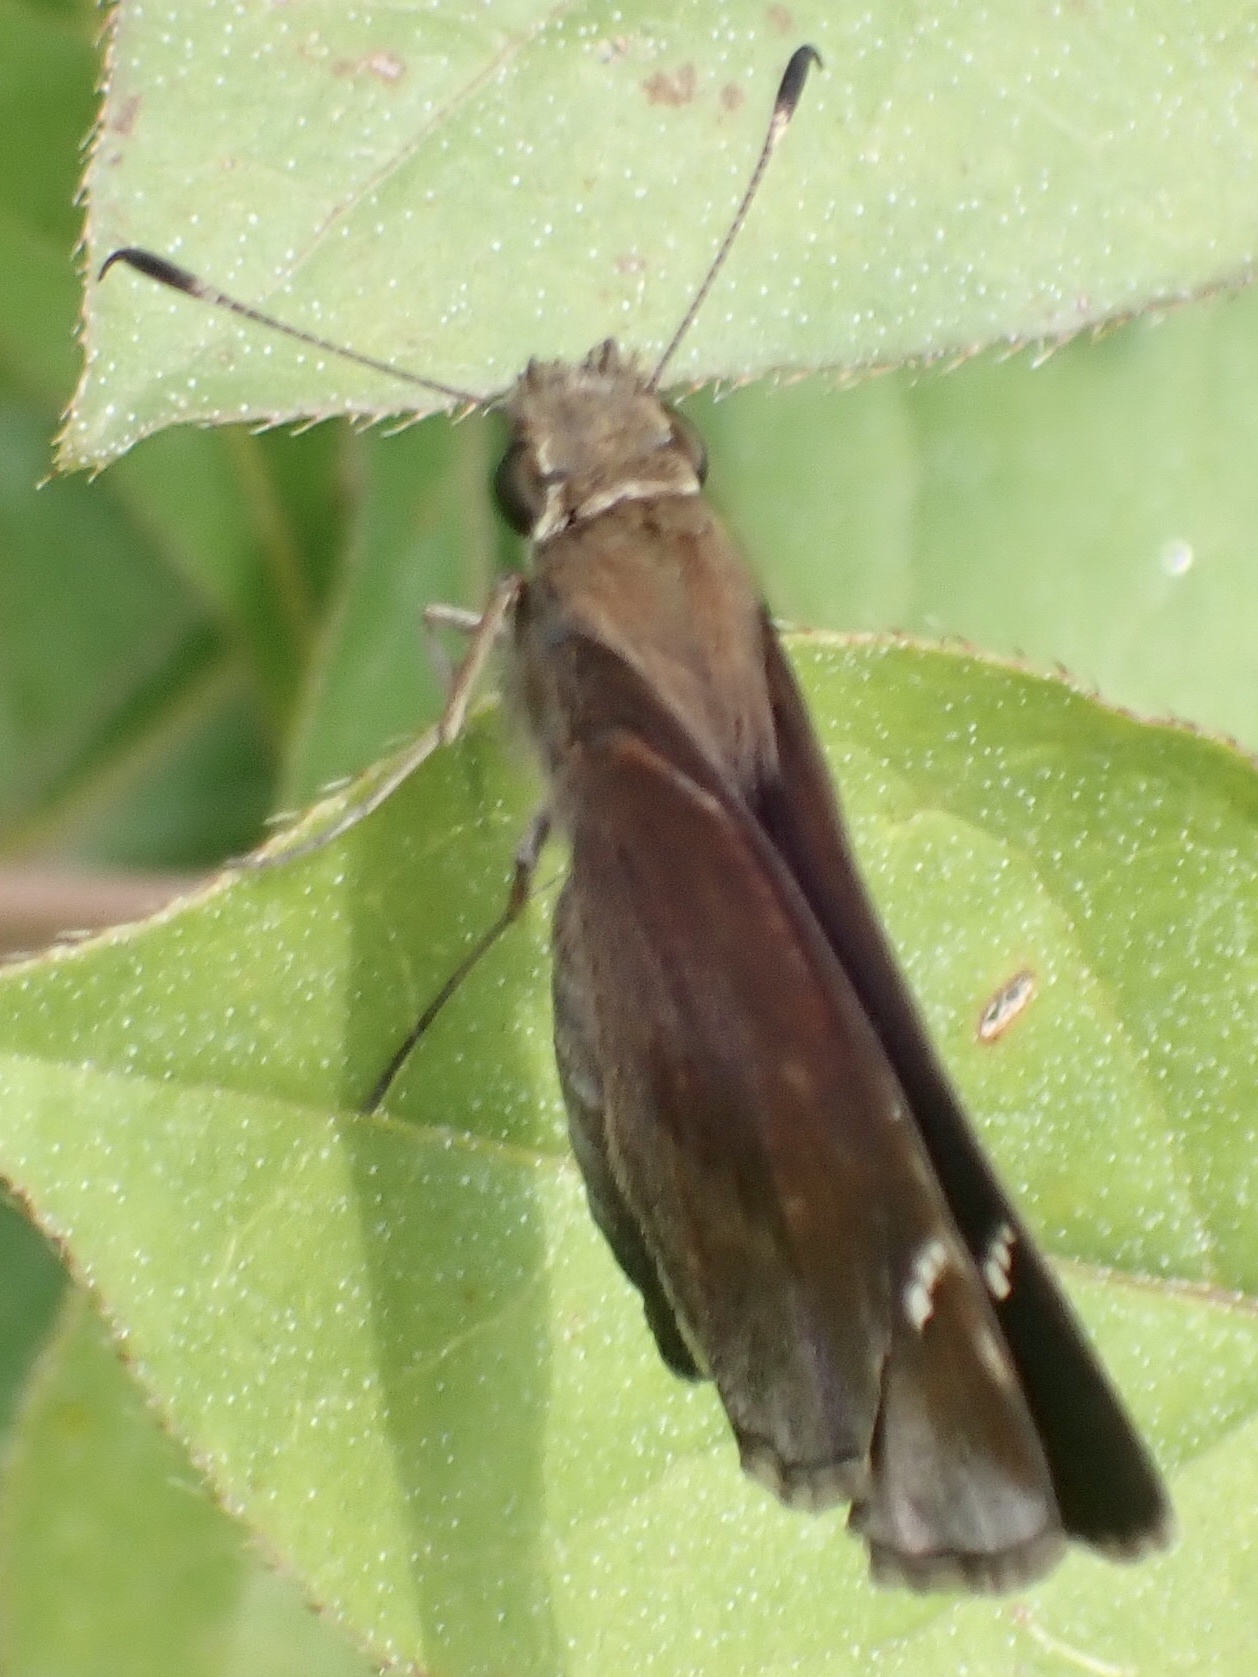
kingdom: Animalia
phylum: Arthropoda
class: Insecta
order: Lepidoptera
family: Hesperiidae
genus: Lerema
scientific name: Lerema accius
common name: Clouded skipper
